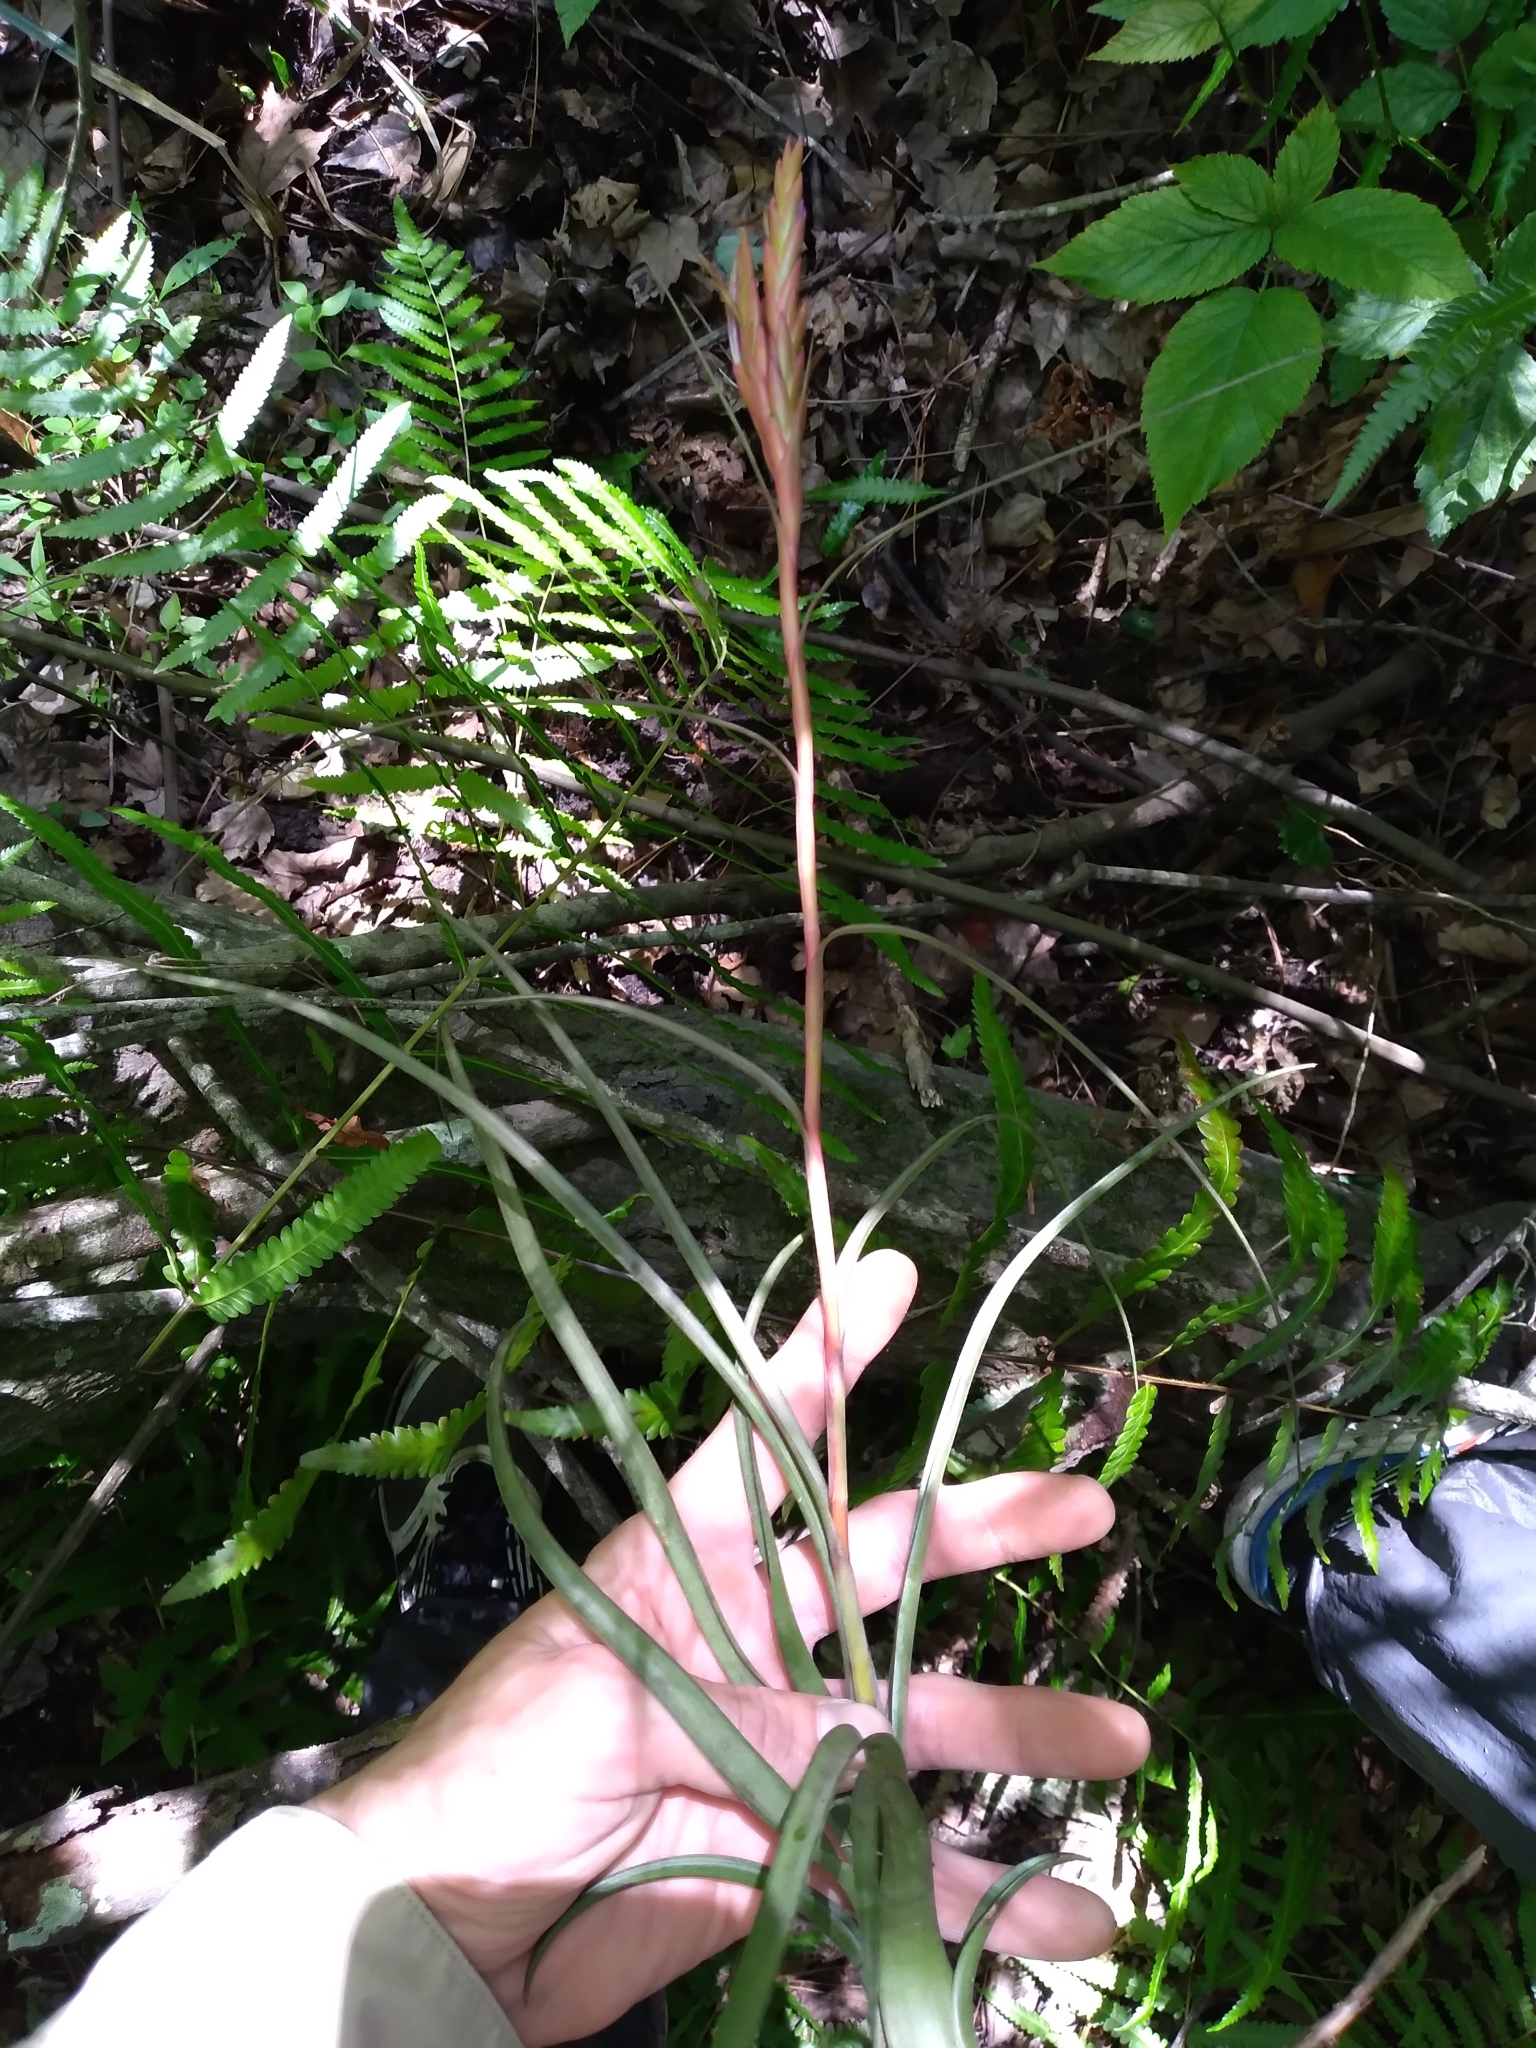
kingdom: Plantae
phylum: Tracheophyta
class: Liliopsida
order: Poales
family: Bromeliaceae
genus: Tillandsia
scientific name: Tillandsia balbisiana
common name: Northern needleleaf
